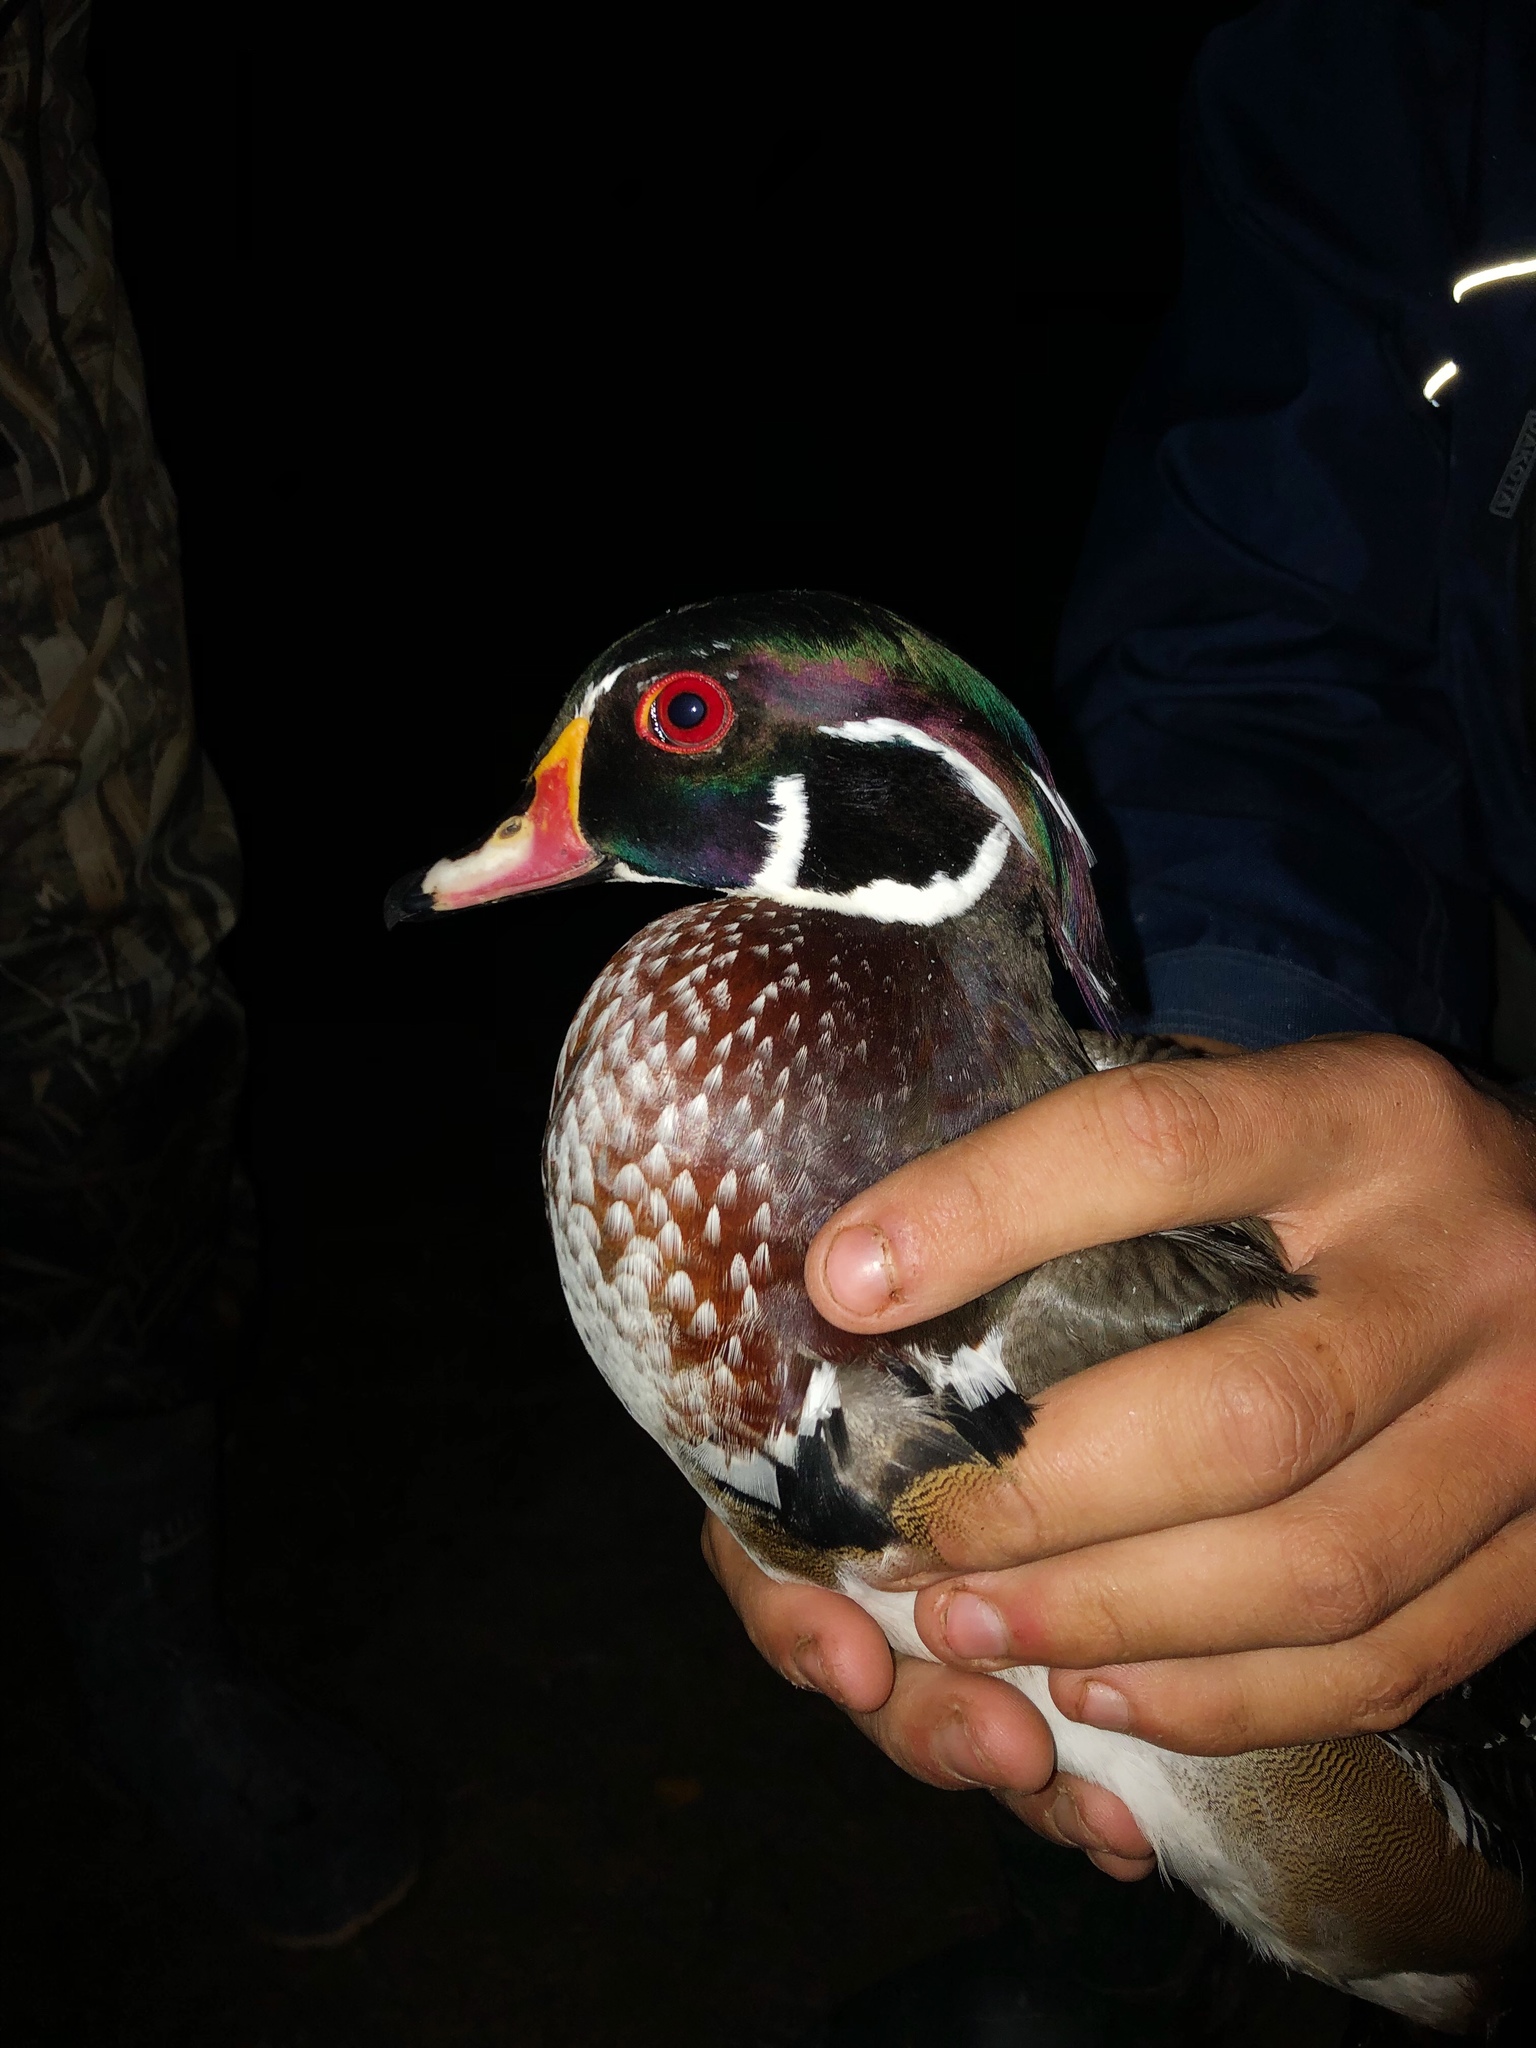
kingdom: Animalia
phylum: Chordata
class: Aves
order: Anseriformes
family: Anatidae
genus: Aix
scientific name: Aix sponsa
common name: Wood duck
